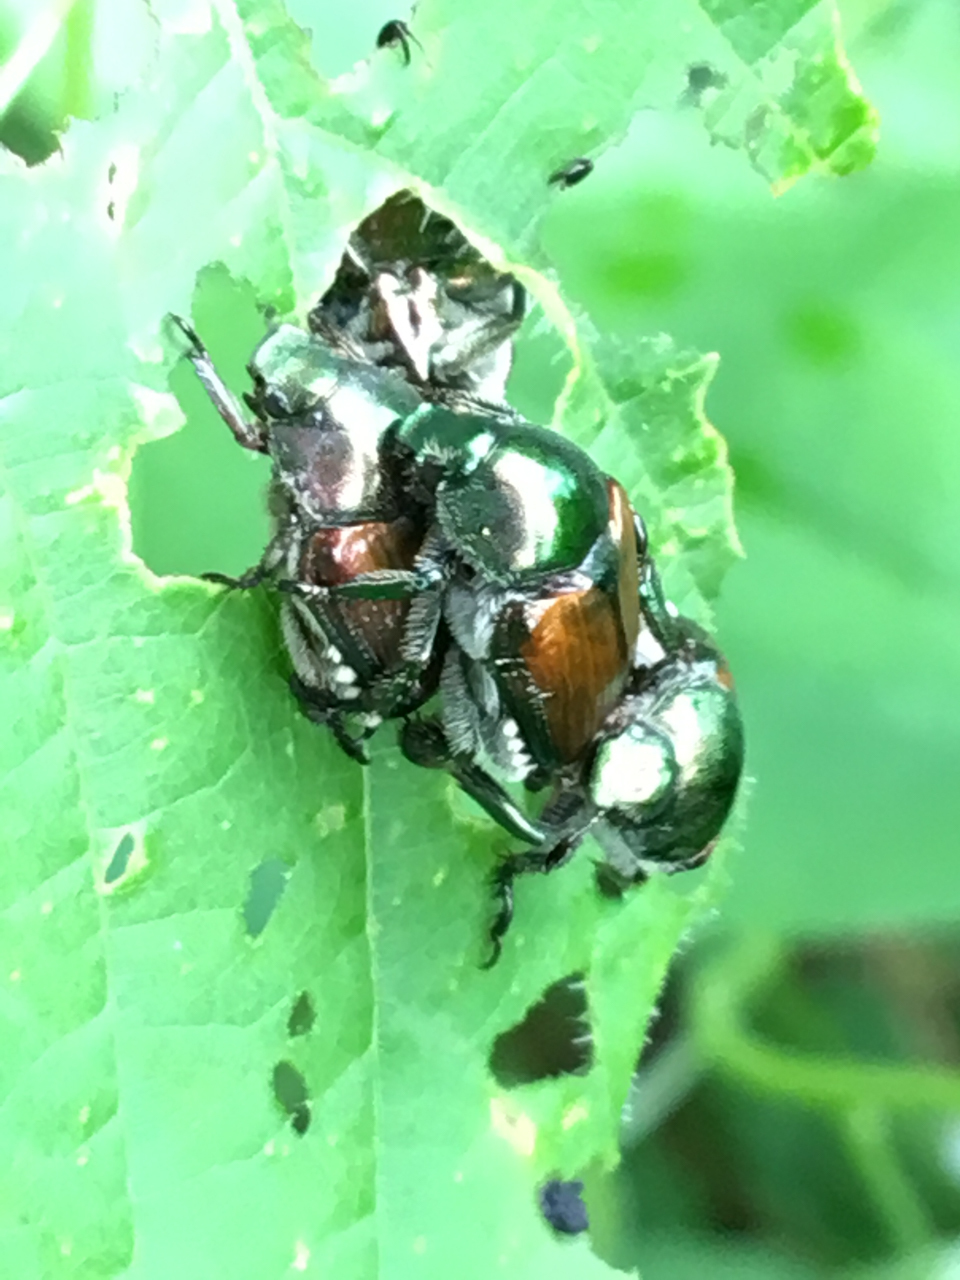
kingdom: Animalia
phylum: Arthropoda
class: Insecta
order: Coleoptera
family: Scarabaeidae
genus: Popillia
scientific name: Popillia japonica
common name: Japanese beetle
